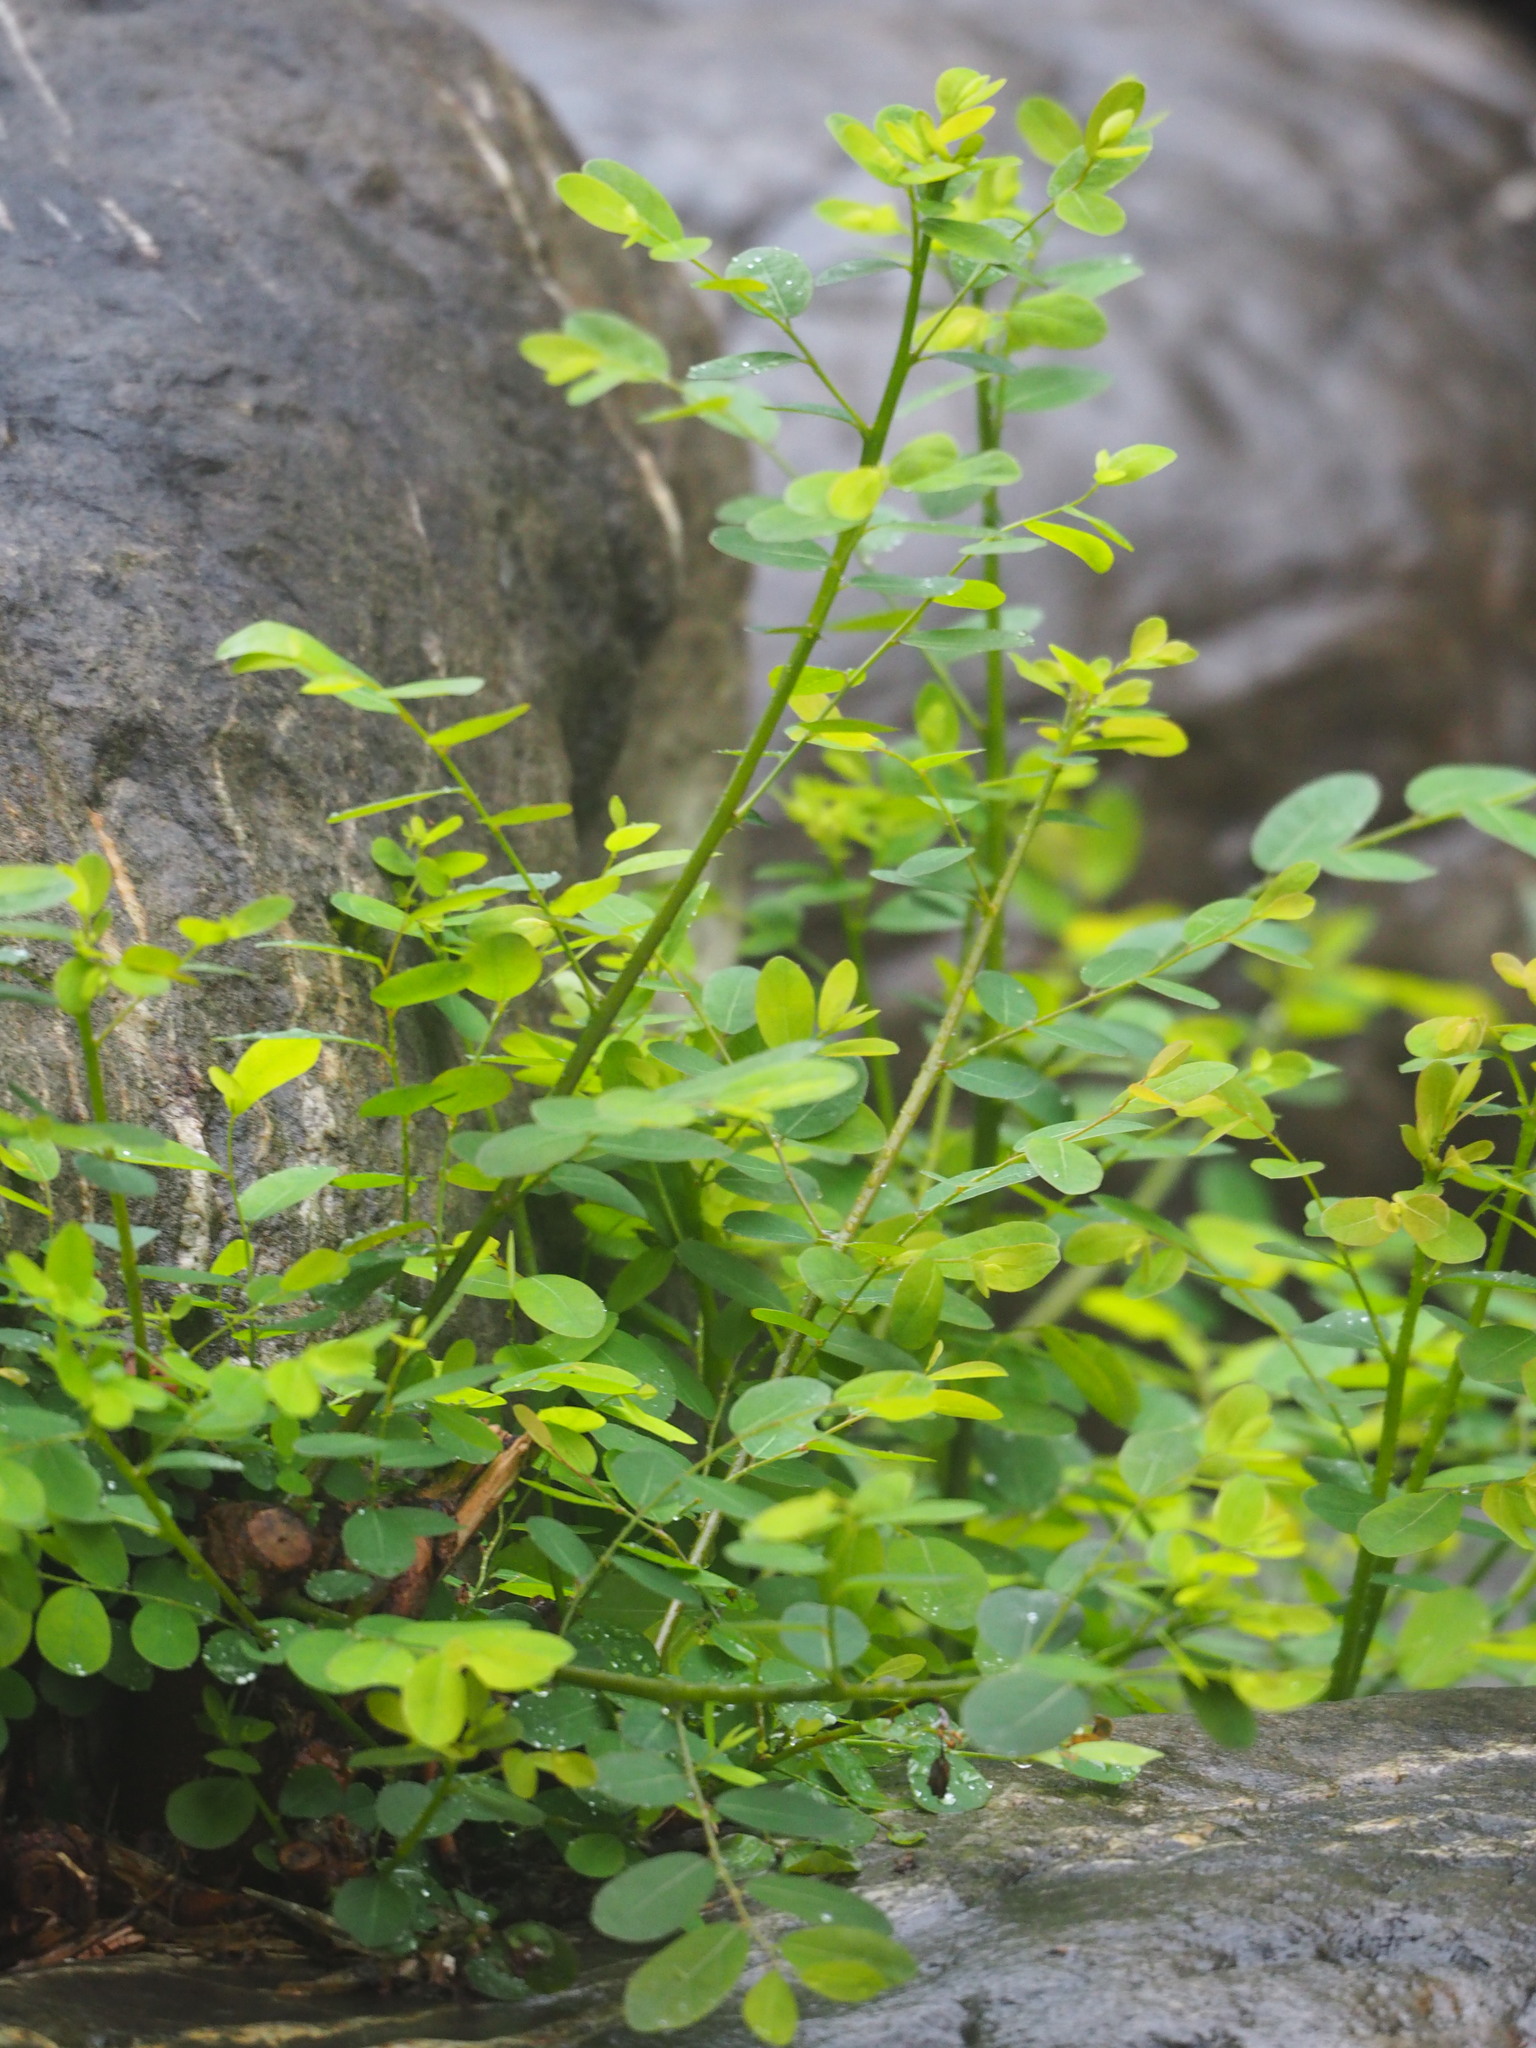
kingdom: Plantae
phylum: Tracheophyta
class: Magnoliopsida
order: Malpighiales
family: Phyllanthaceae
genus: Flueggea
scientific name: Flueggea virosa
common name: Common bushweed
